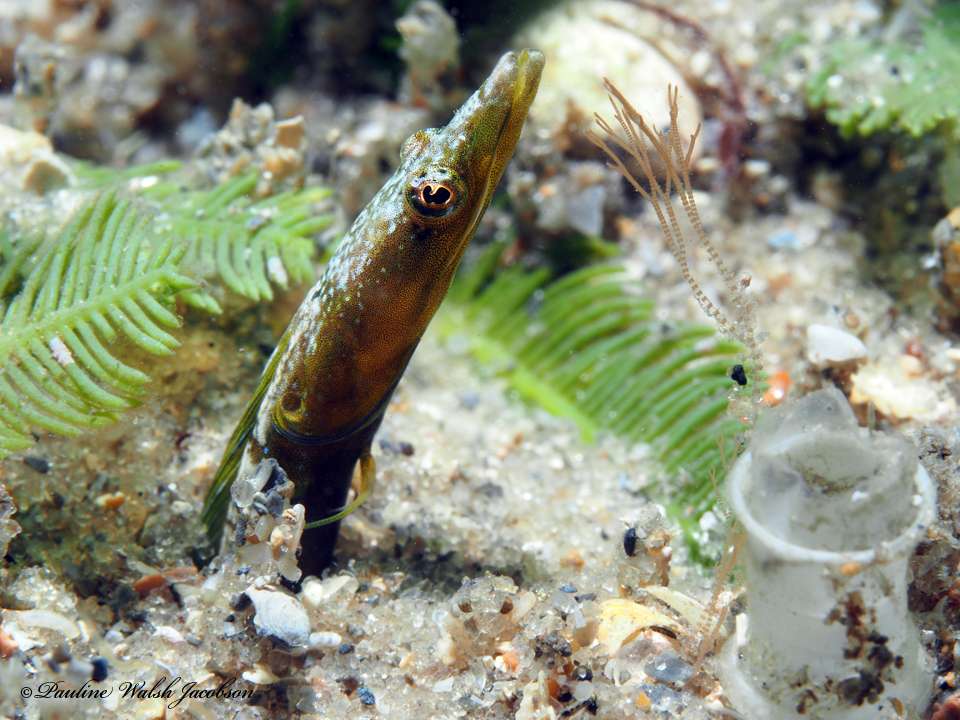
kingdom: Animalia
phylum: Chordata
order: Perciformes
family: Chaenopsidae
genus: Chaenopsis
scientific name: Chaenopsis ocellata
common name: Bluethroat pikeblenny
